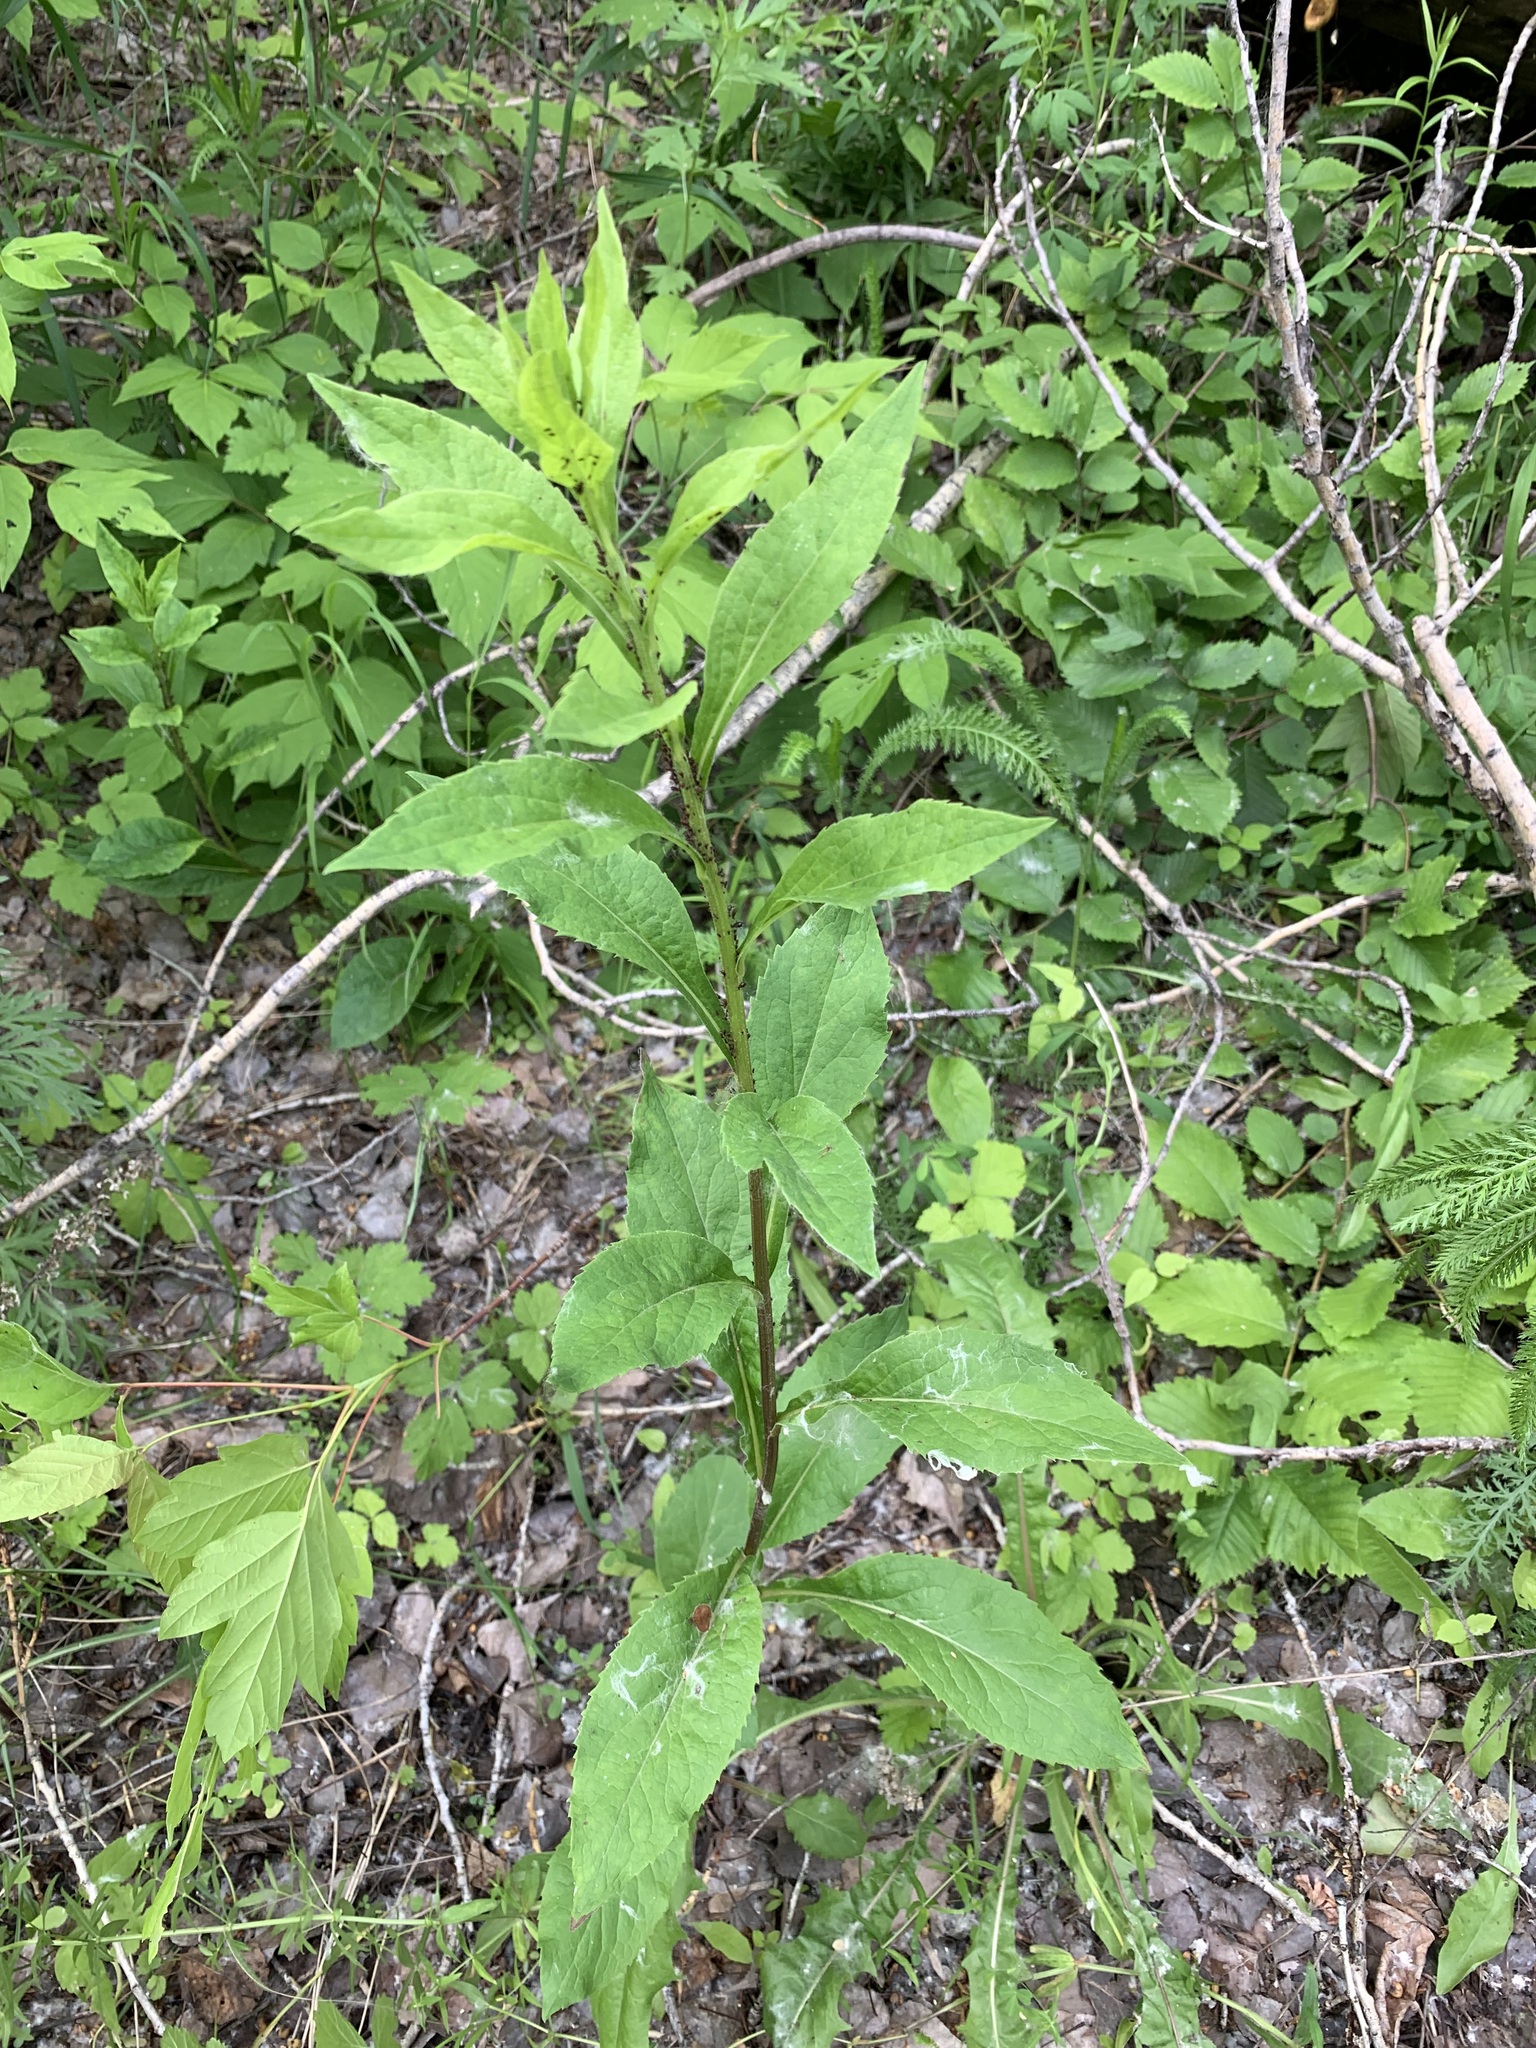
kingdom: Plantae
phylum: Tracheophyta
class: Magnoliopsida
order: Asterales
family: Asteraceae
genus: Solidago
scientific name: Solidago virgaurea
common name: Goldenrod
